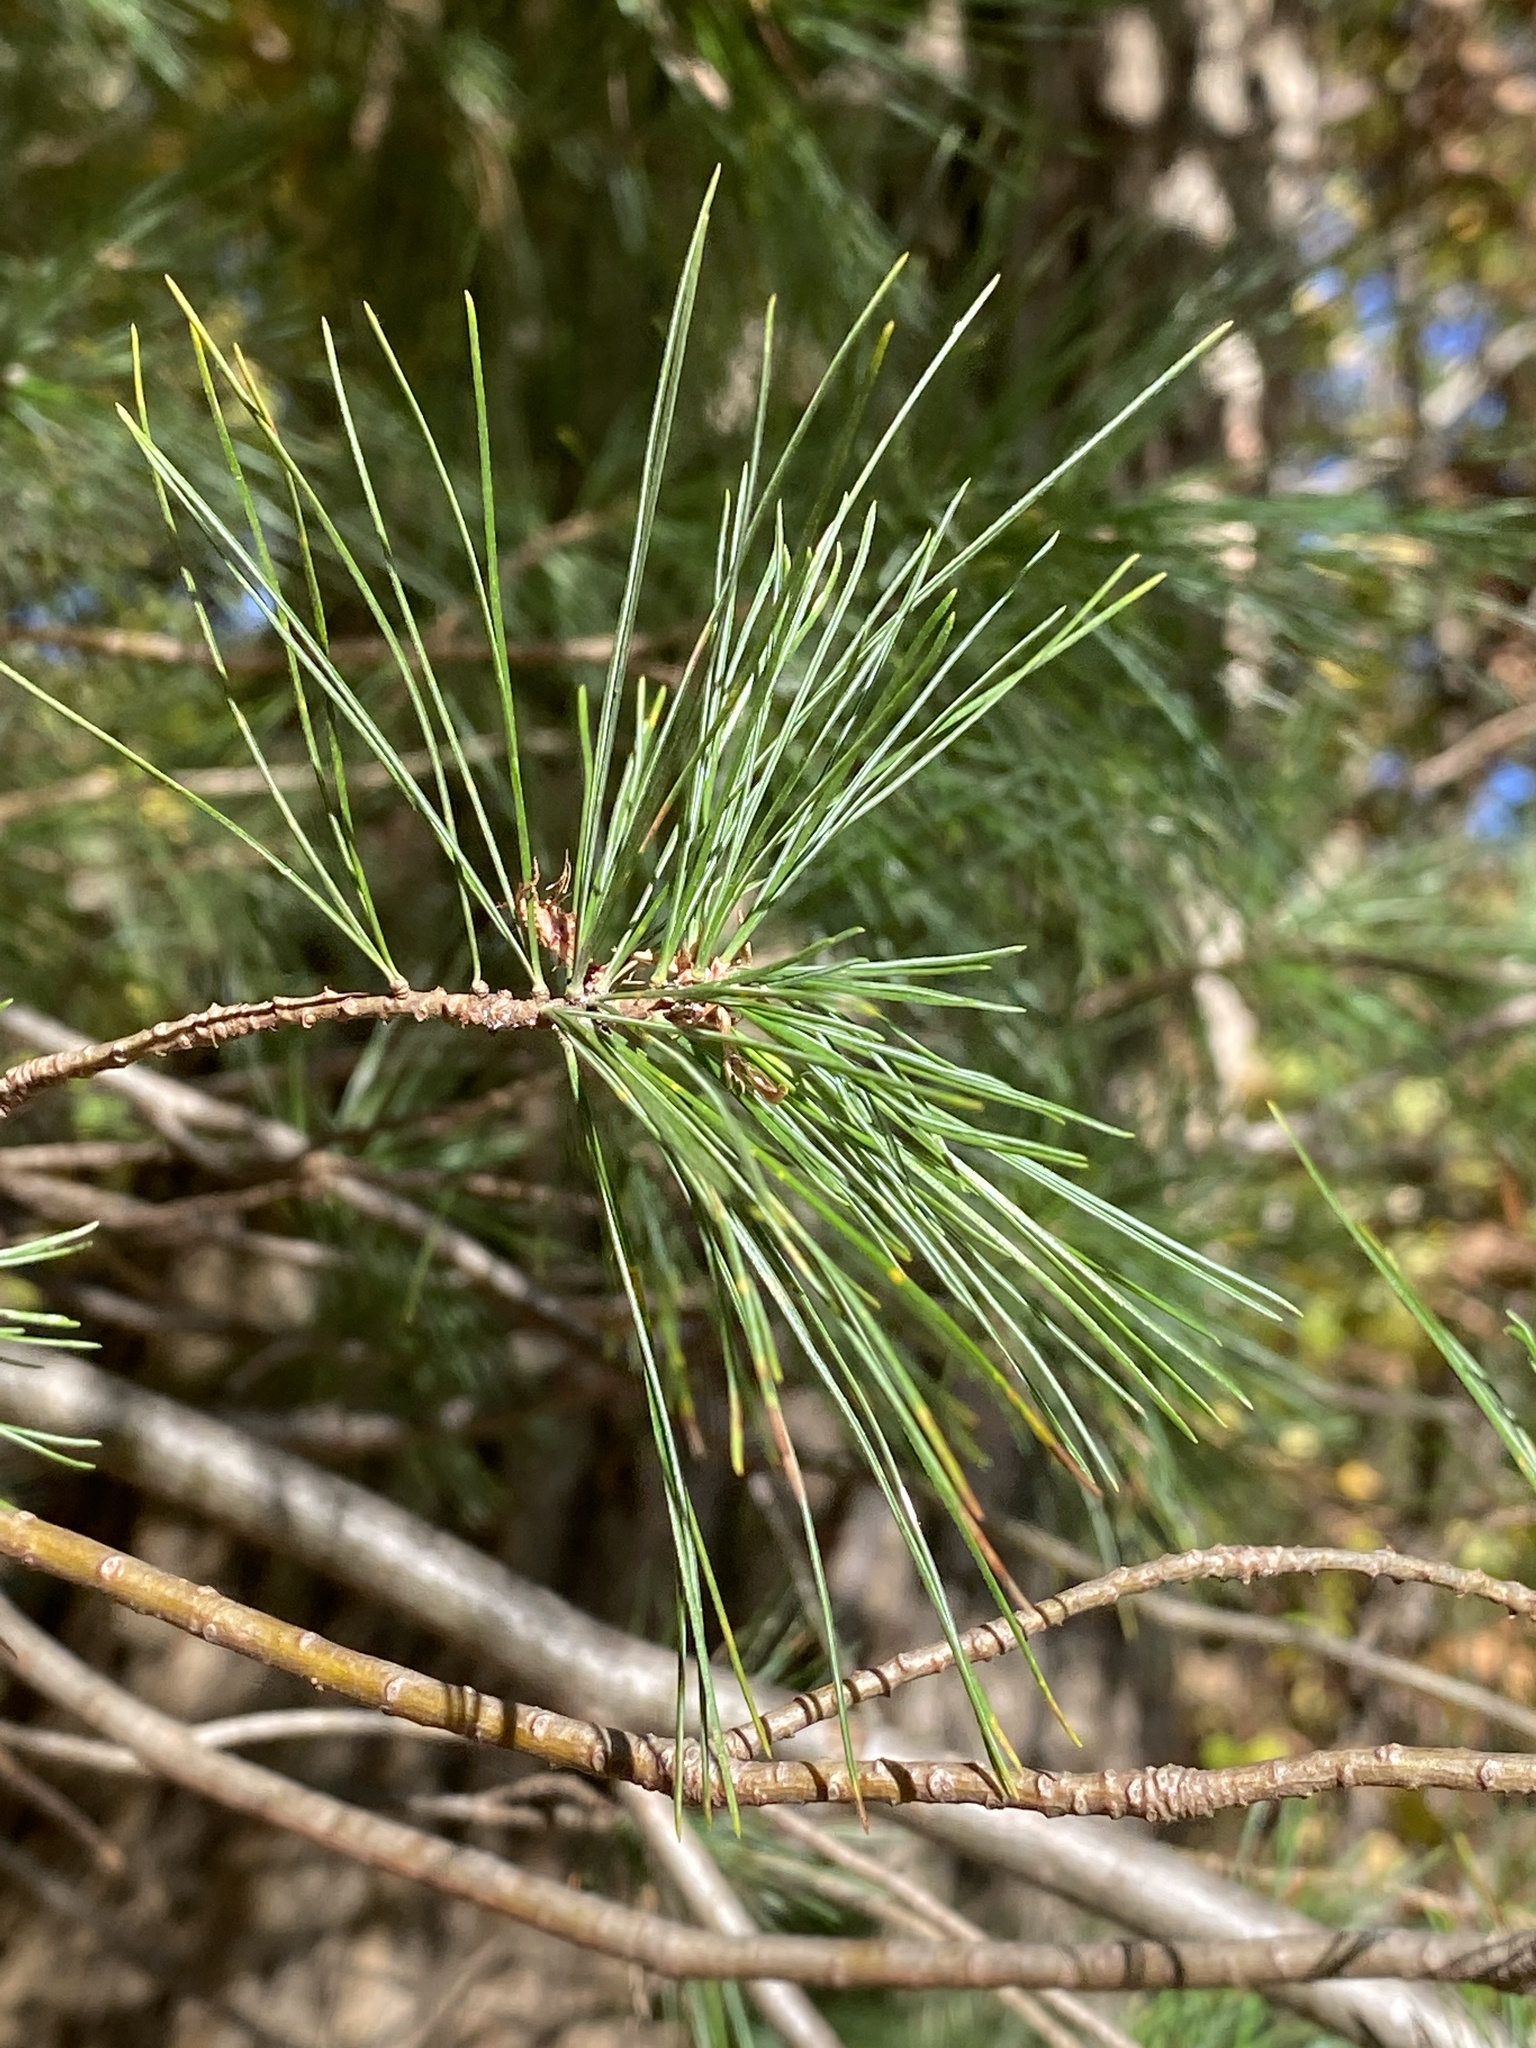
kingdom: Plantae
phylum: Tracheophyta
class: Pinopsida
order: Pinales
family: Pinaceae
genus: Pinus
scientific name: Pinus strobus
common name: Weymouth pine
